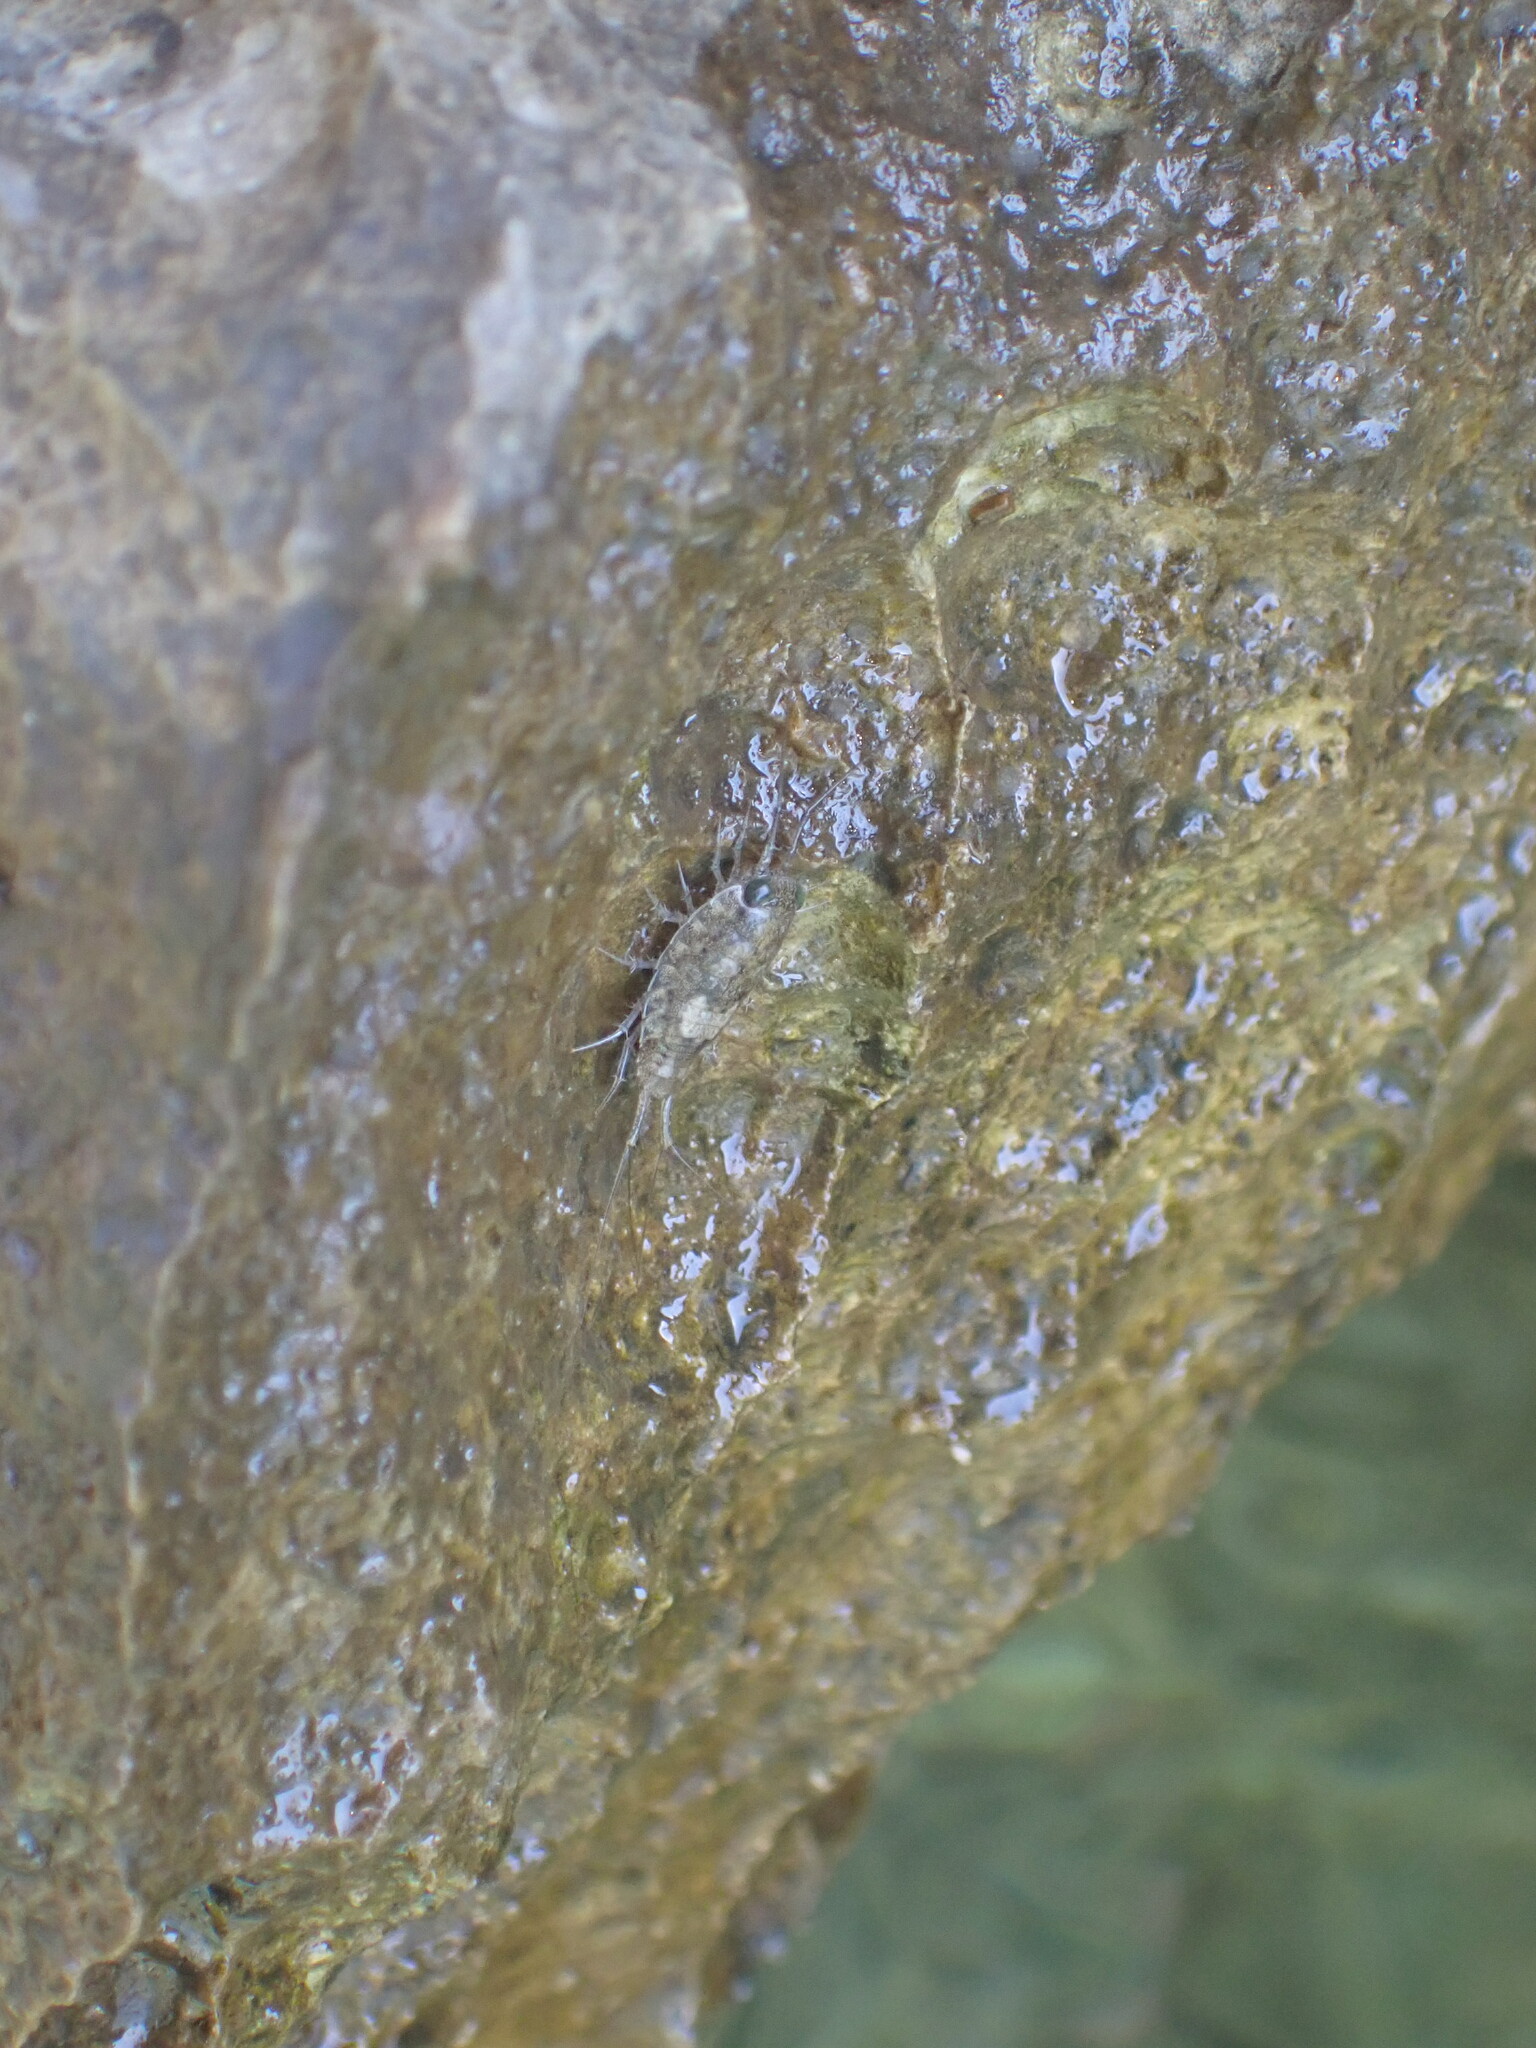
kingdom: Animalia
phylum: Arthropoda
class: Malacostraca
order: Isopoda
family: Ligiidae
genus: Ligia
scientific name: Ligia italica
